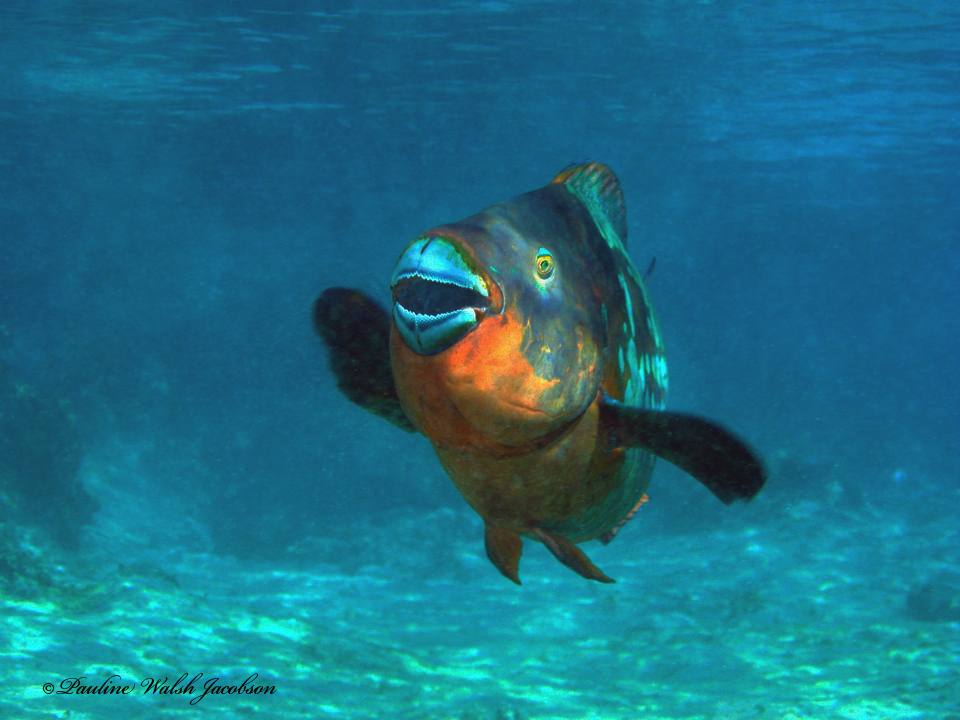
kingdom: Animalia
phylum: Chordata
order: Perciformes
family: Scaridae
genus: Scarus
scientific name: Scarus guacamaia
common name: Rainbow parrotfish
